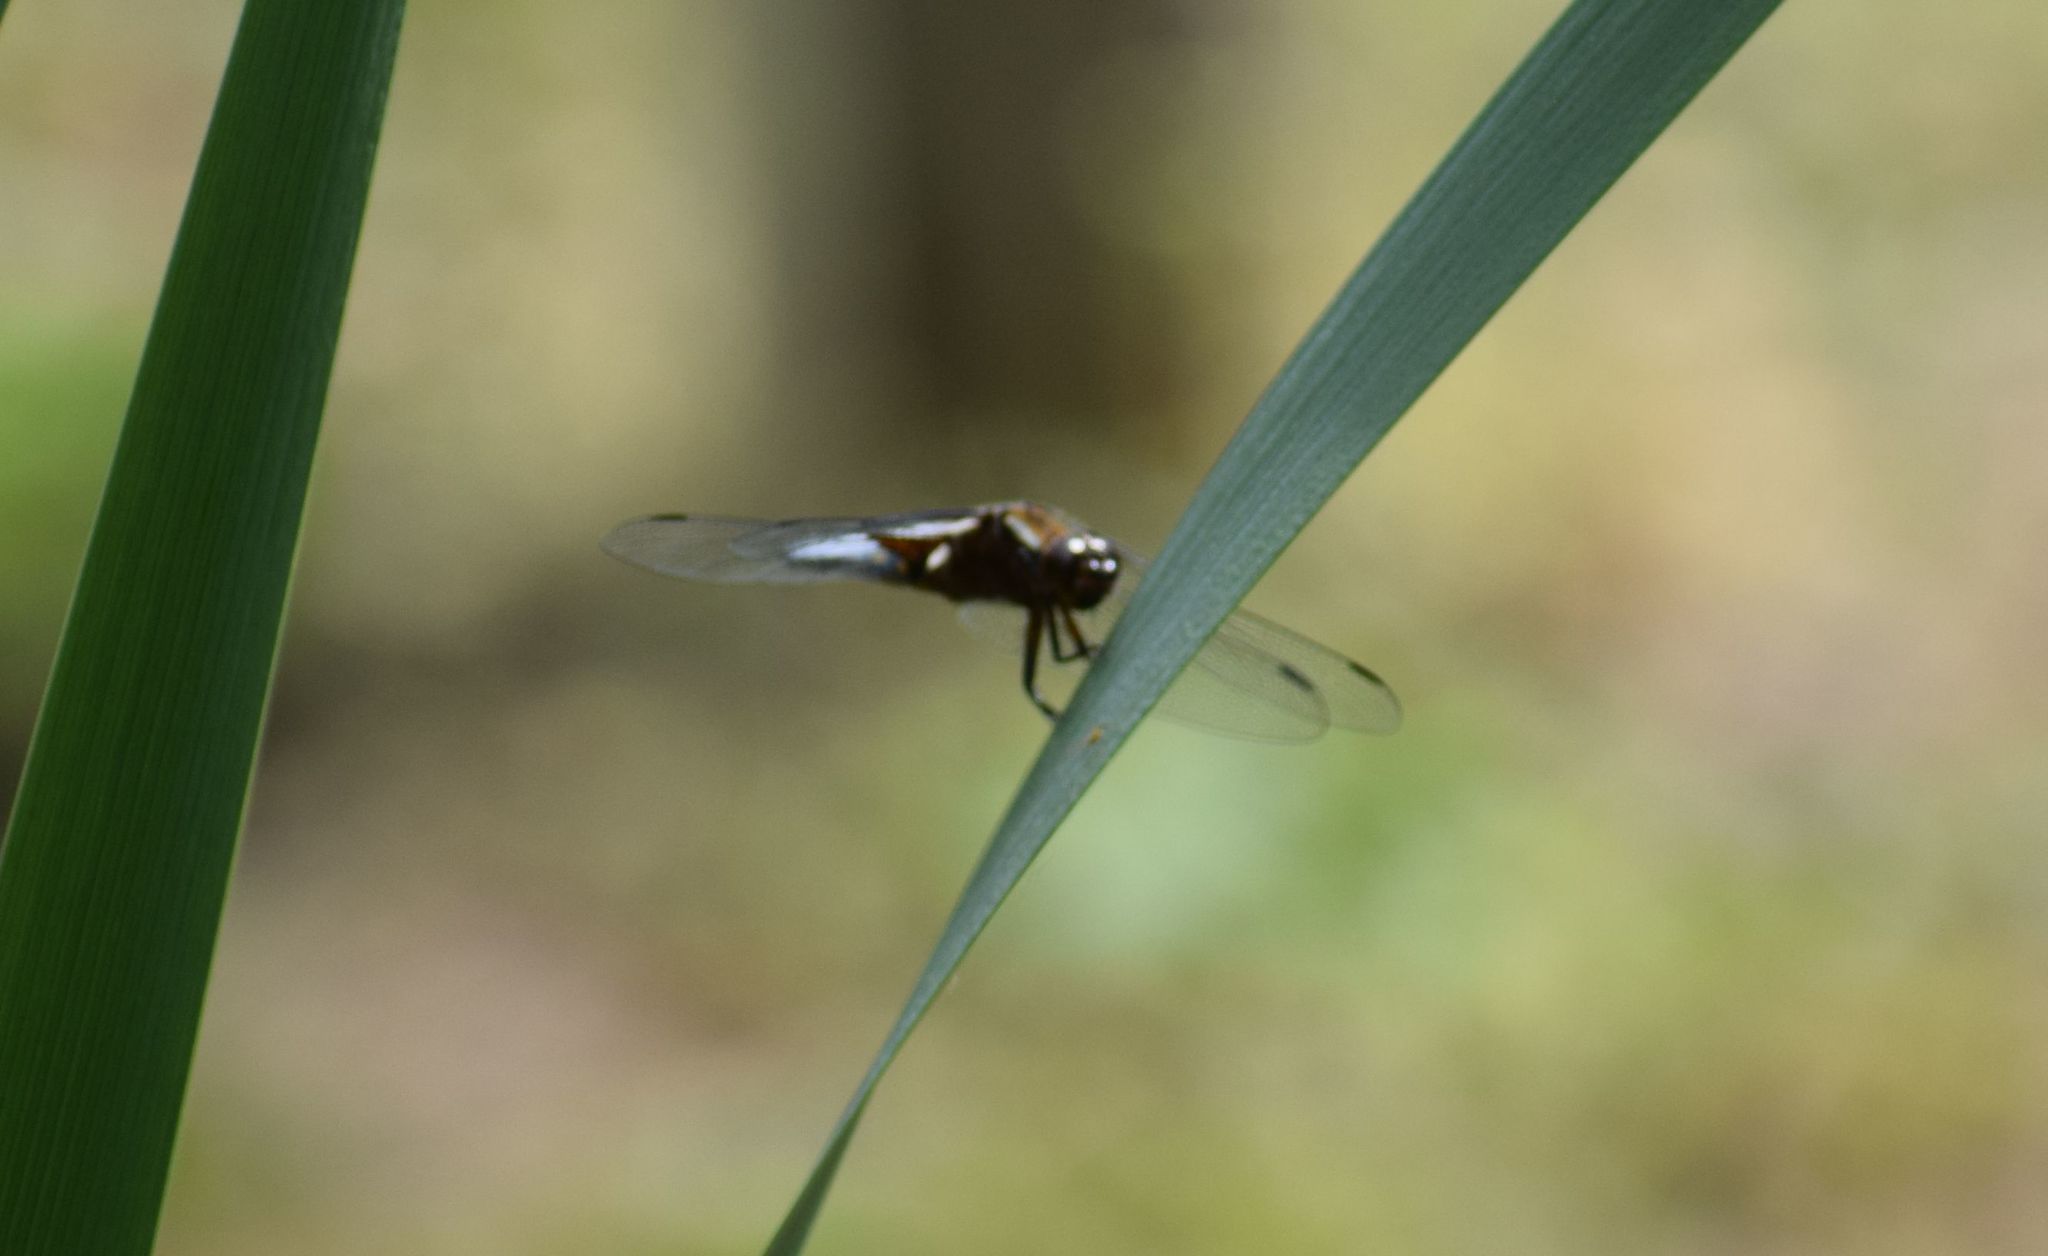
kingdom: Animalia
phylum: Arthropoda
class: Insecta
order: Odonata
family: Libellulidae
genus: Libellula
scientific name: Libellula depressa
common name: Broad-bodied chaser
